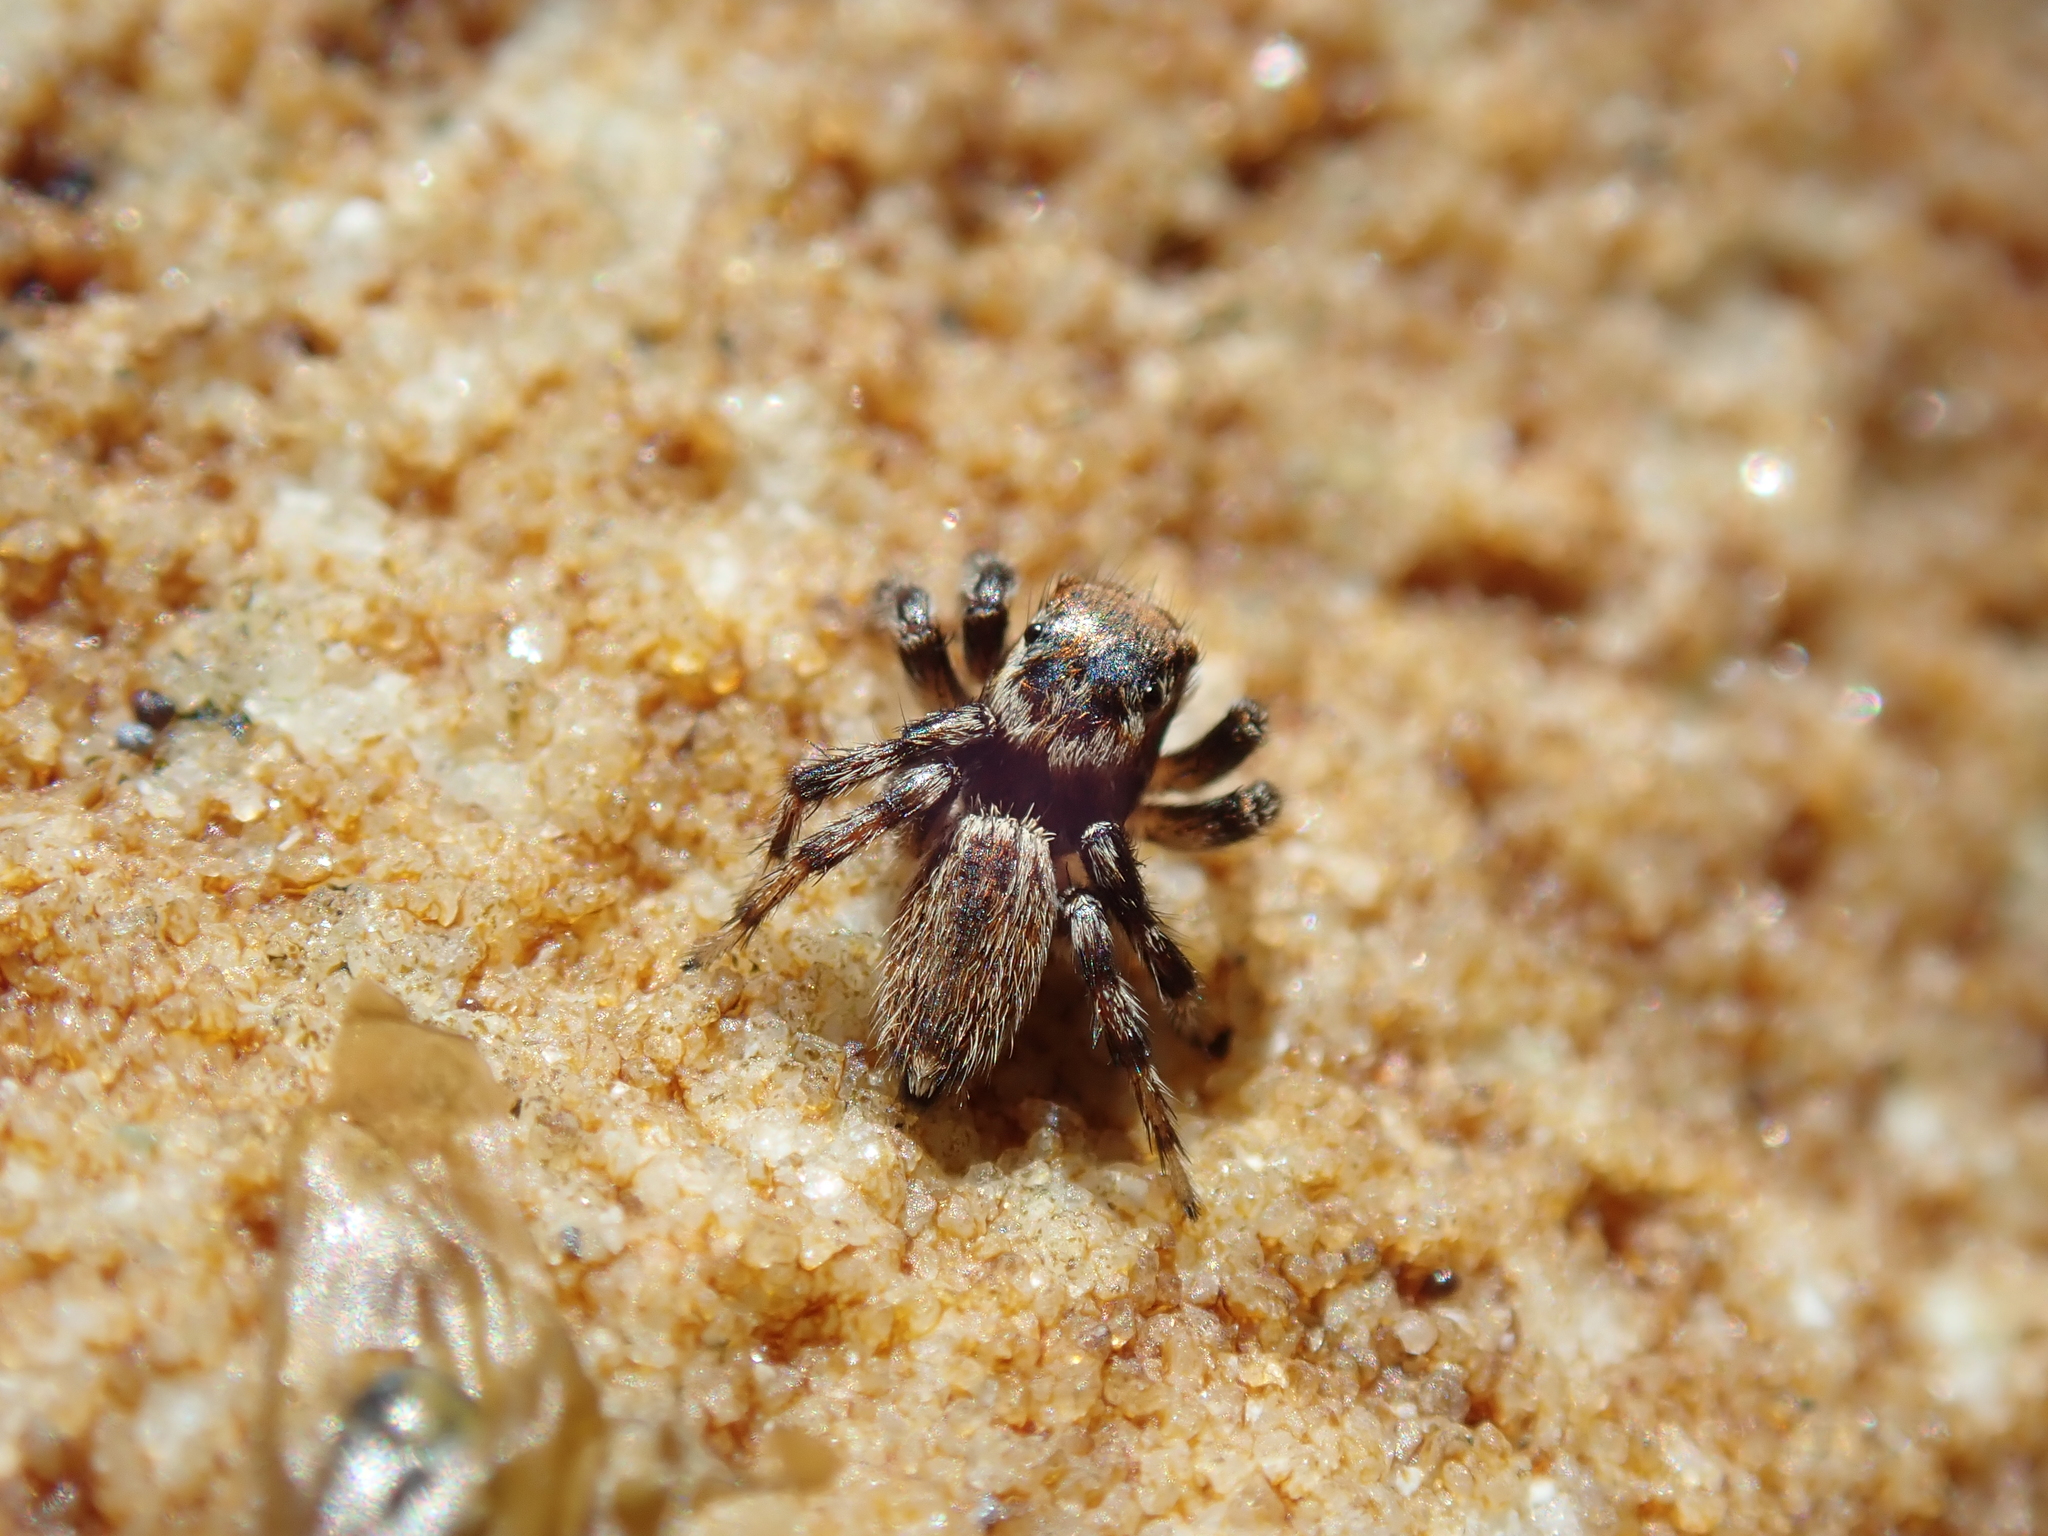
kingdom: Animalia
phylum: Arthropoda
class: Arachnida
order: Araneae
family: Salticidae
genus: Maratus
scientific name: Maratus griseus
